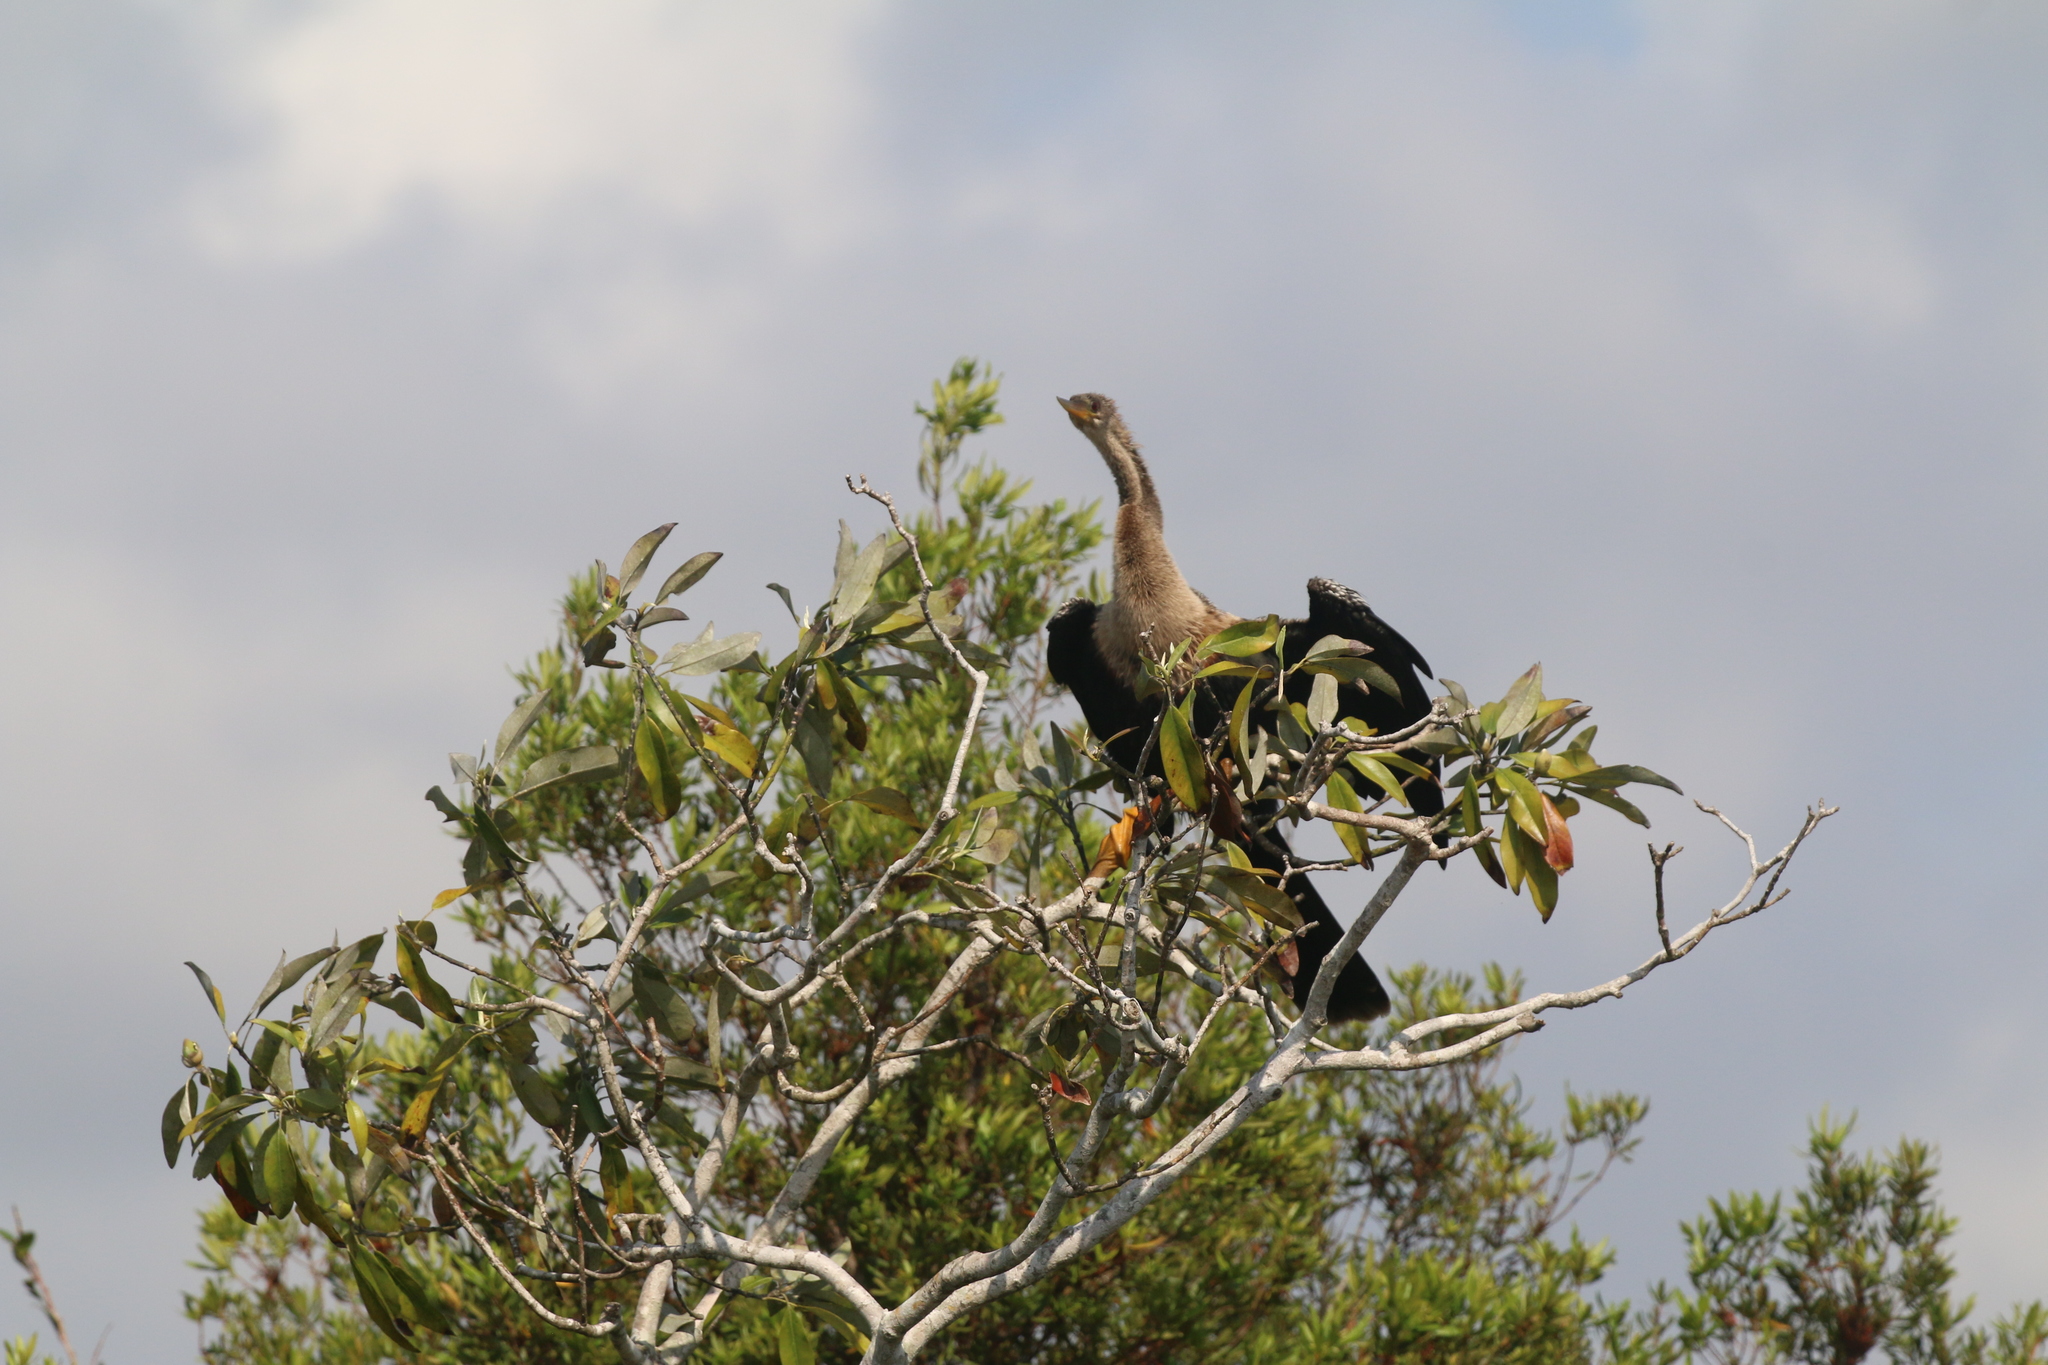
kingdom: Animalia
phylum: Chordata
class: Aves
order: Suliformes
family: Anhingidae
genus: Anhinga
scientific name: Anhinga anhinga
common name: Anhinga
